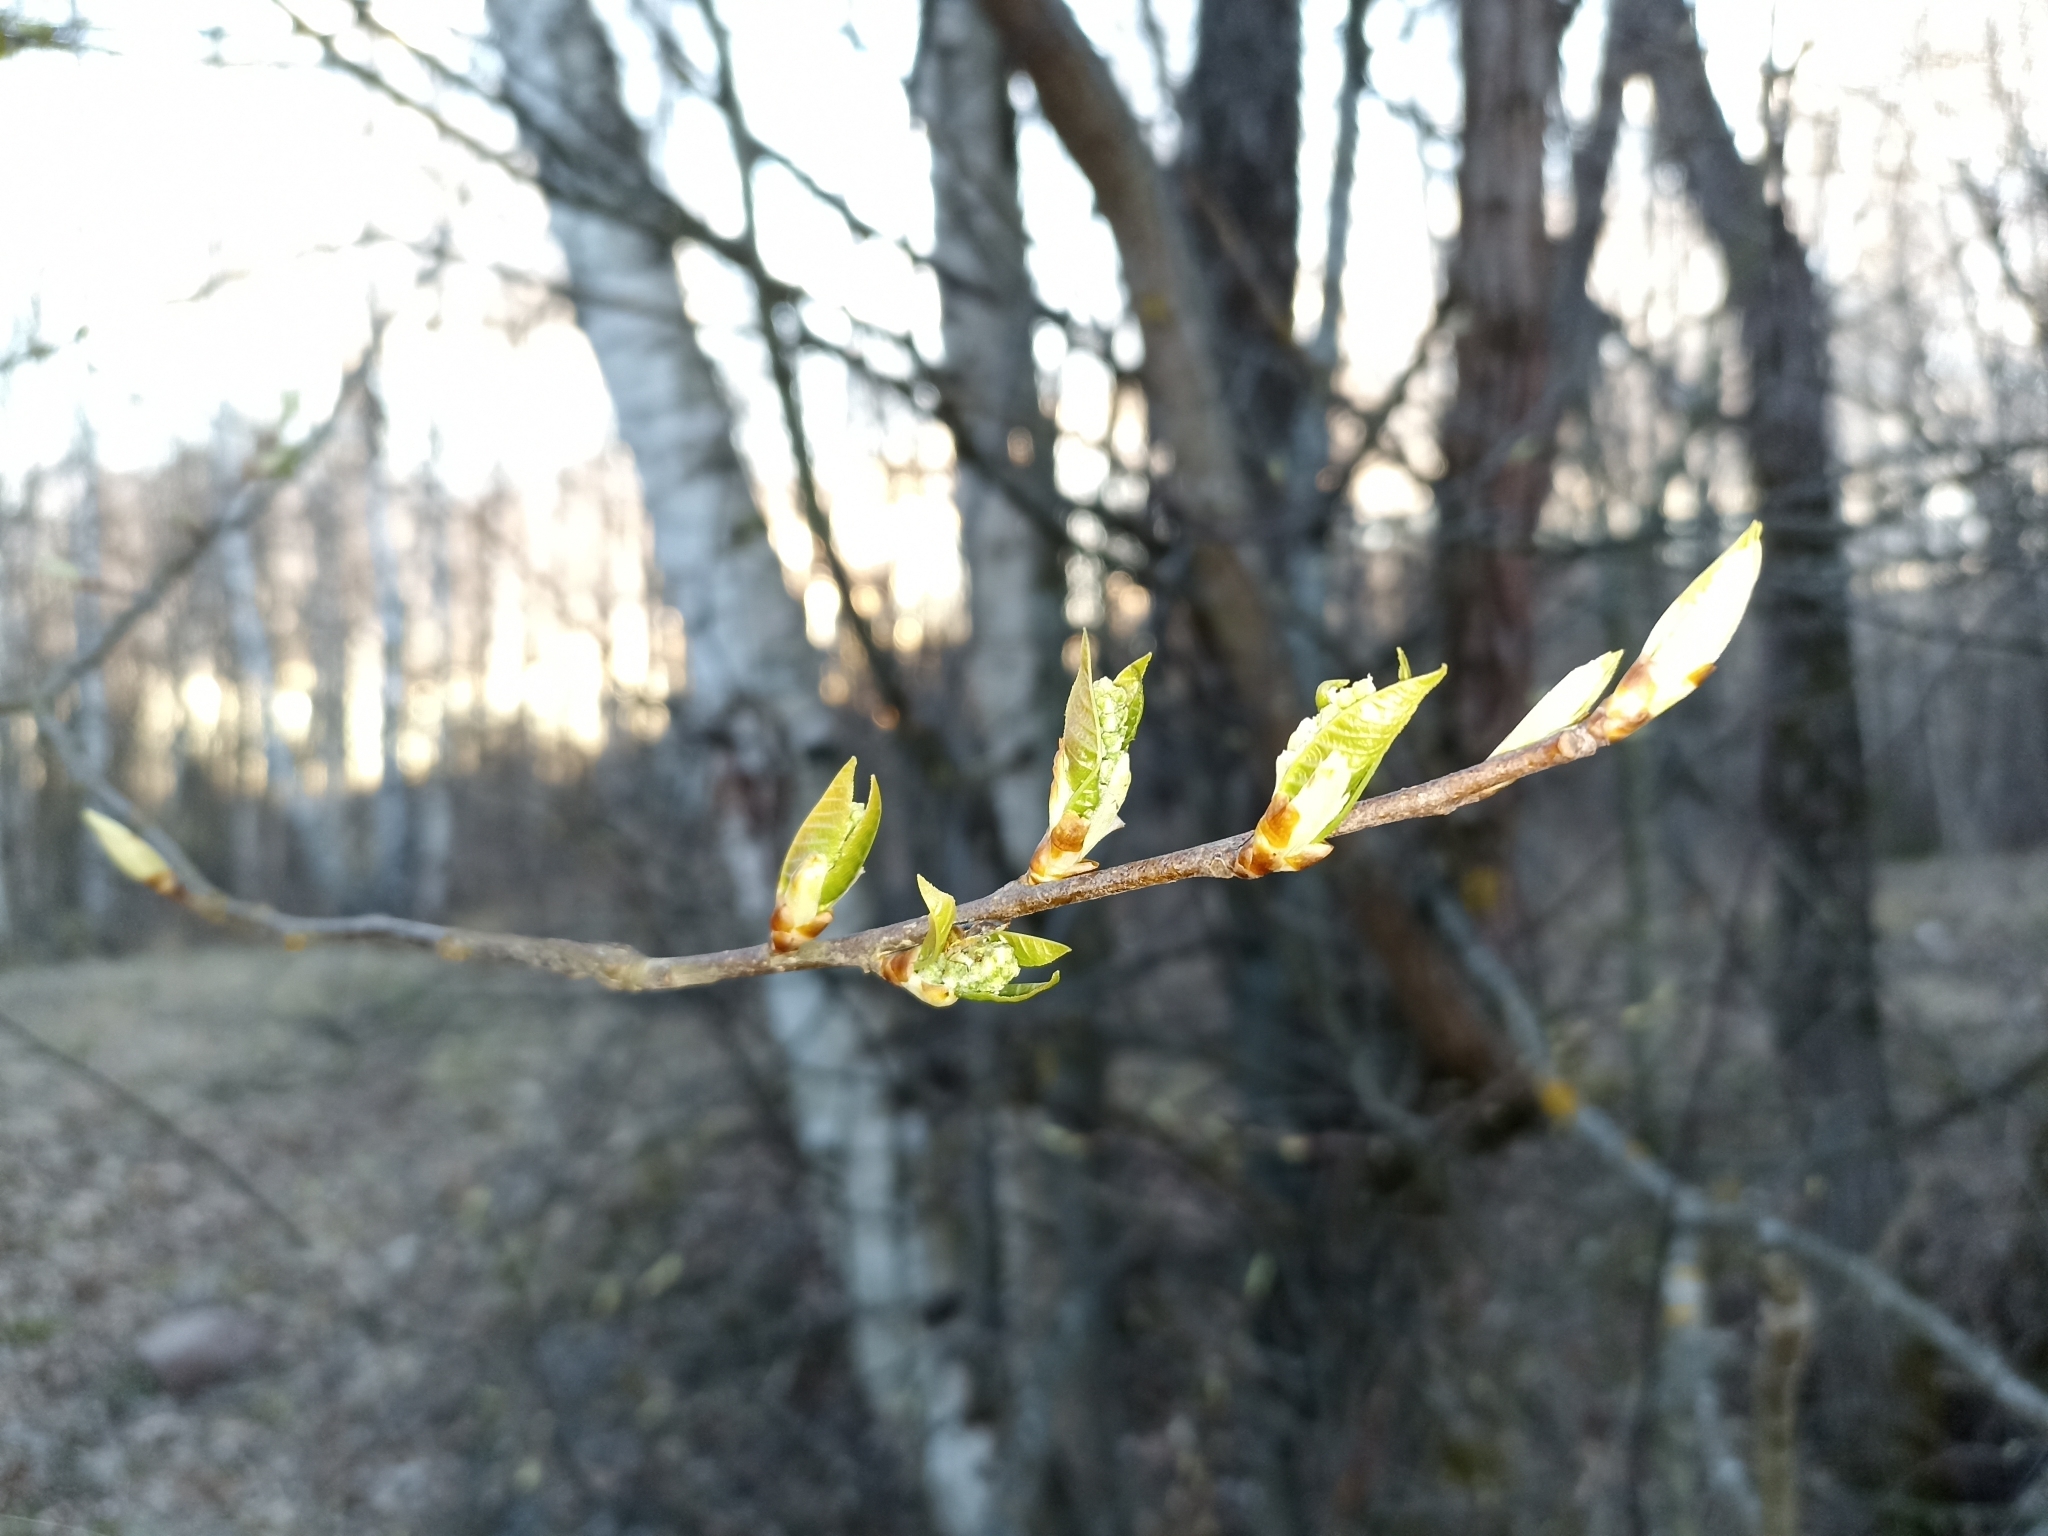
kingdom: Plantae
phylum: Tracheophyta
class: Magnoliopsida
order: Rosales
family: Rosaceae
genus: Prunus
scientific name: Prunus padus
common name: Bird cherry
